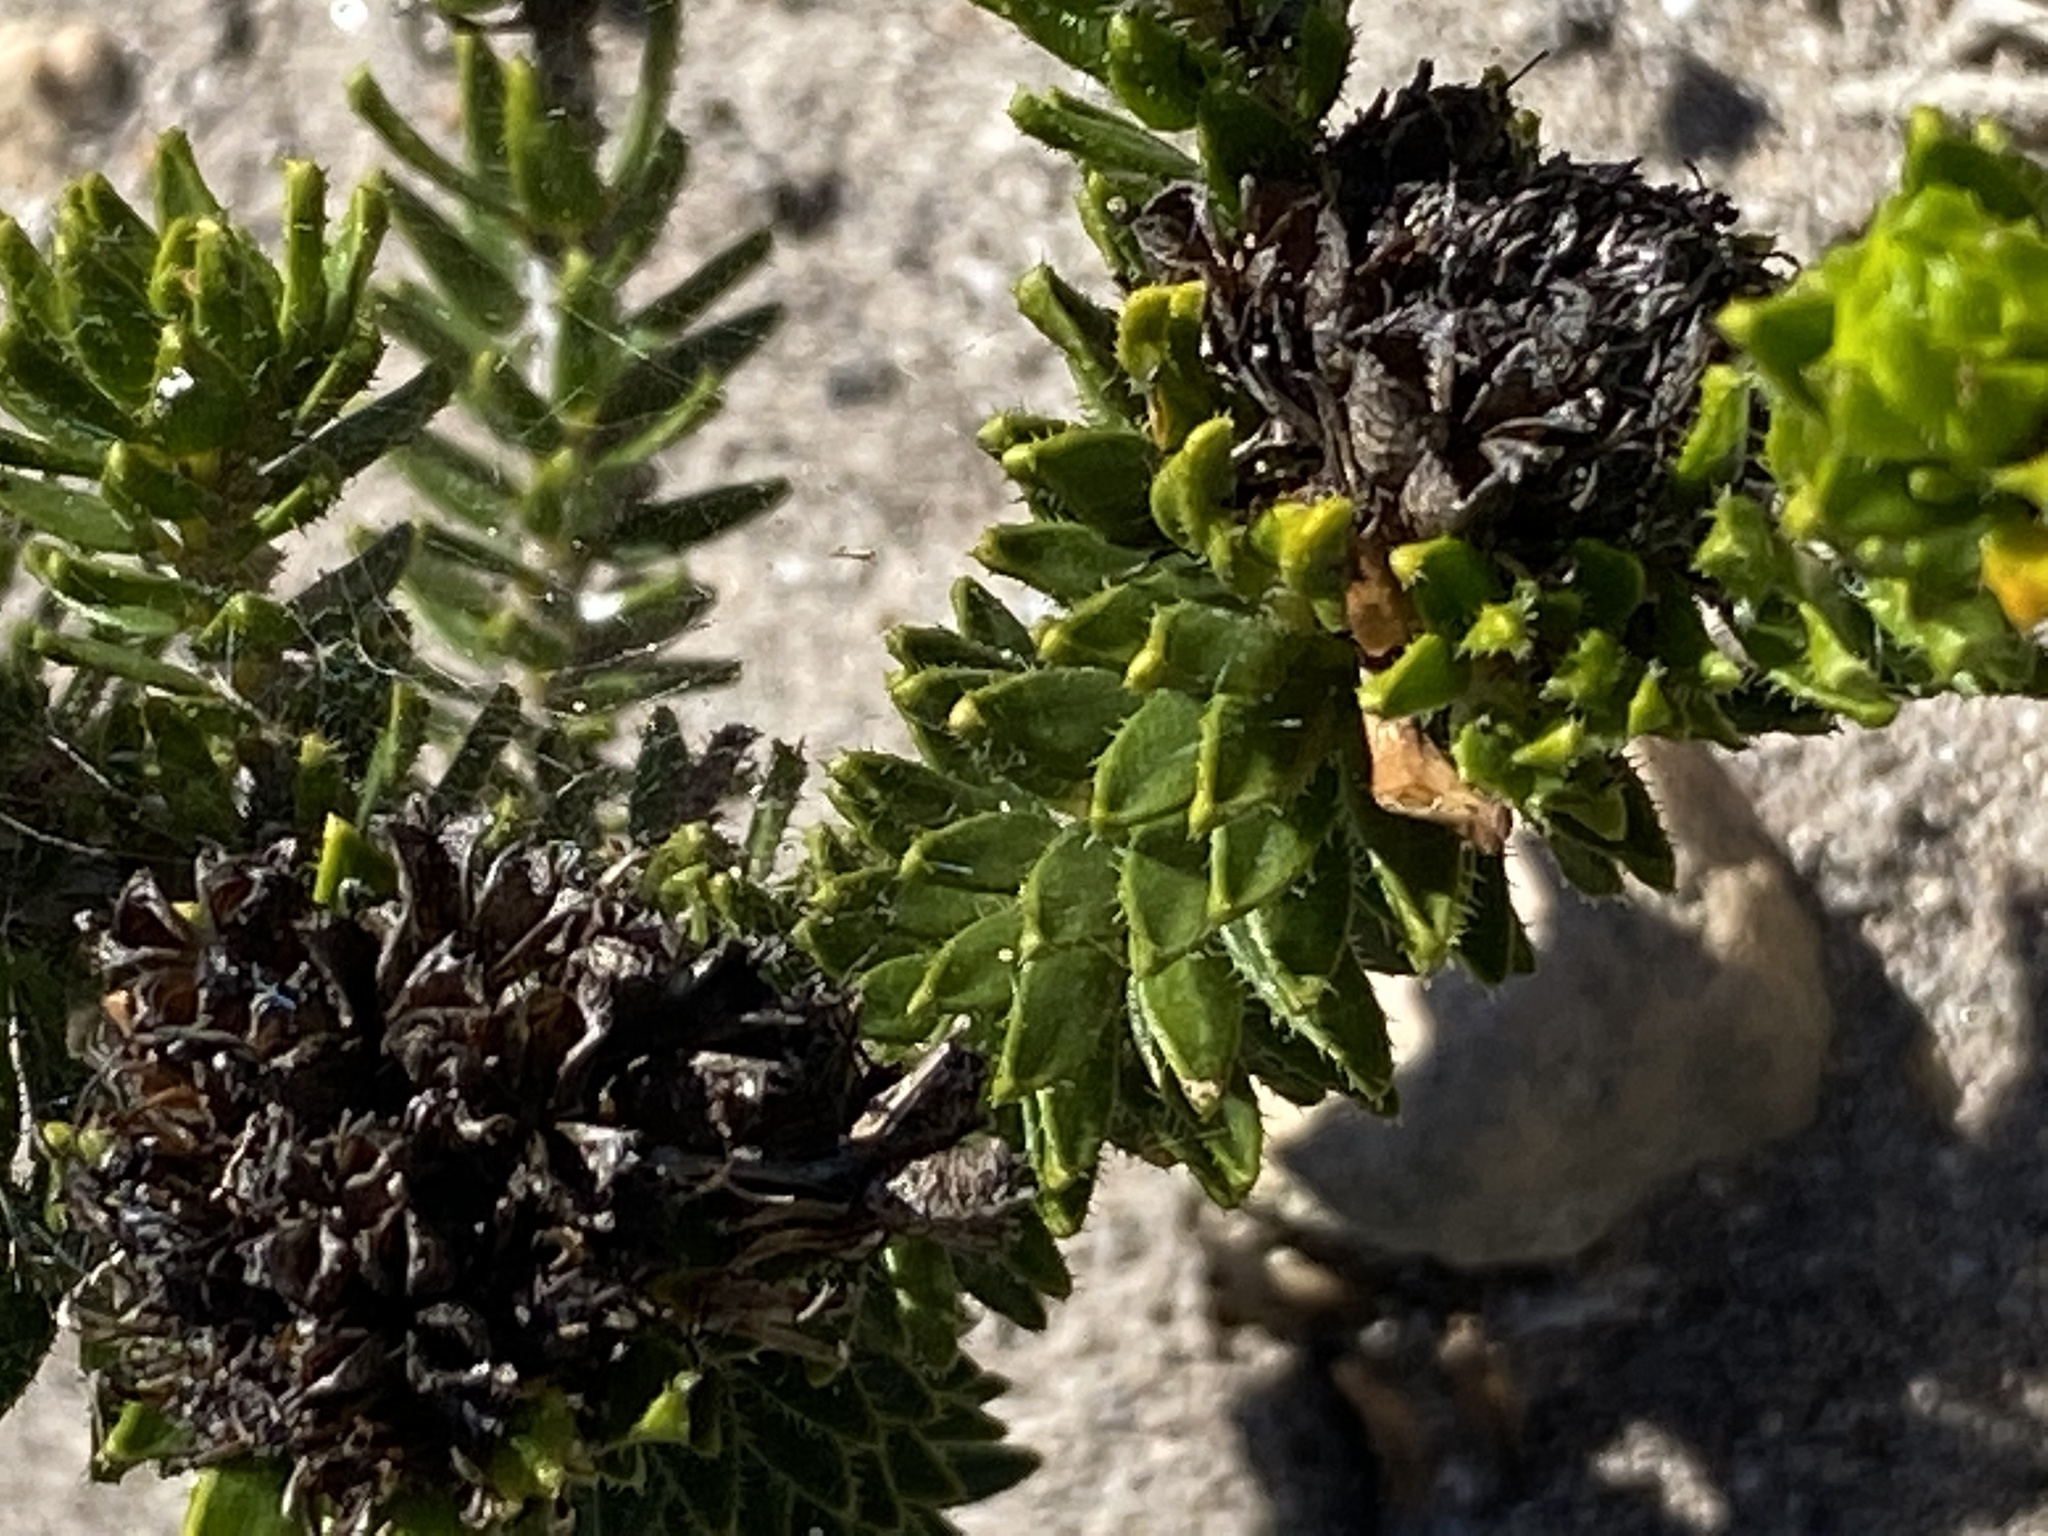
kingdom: Plantae
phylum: Tracheophyta
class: Magnoliopsida
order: Sapindales
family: Rutaceae
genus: Agathosma
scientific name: Agathosma eriantha
